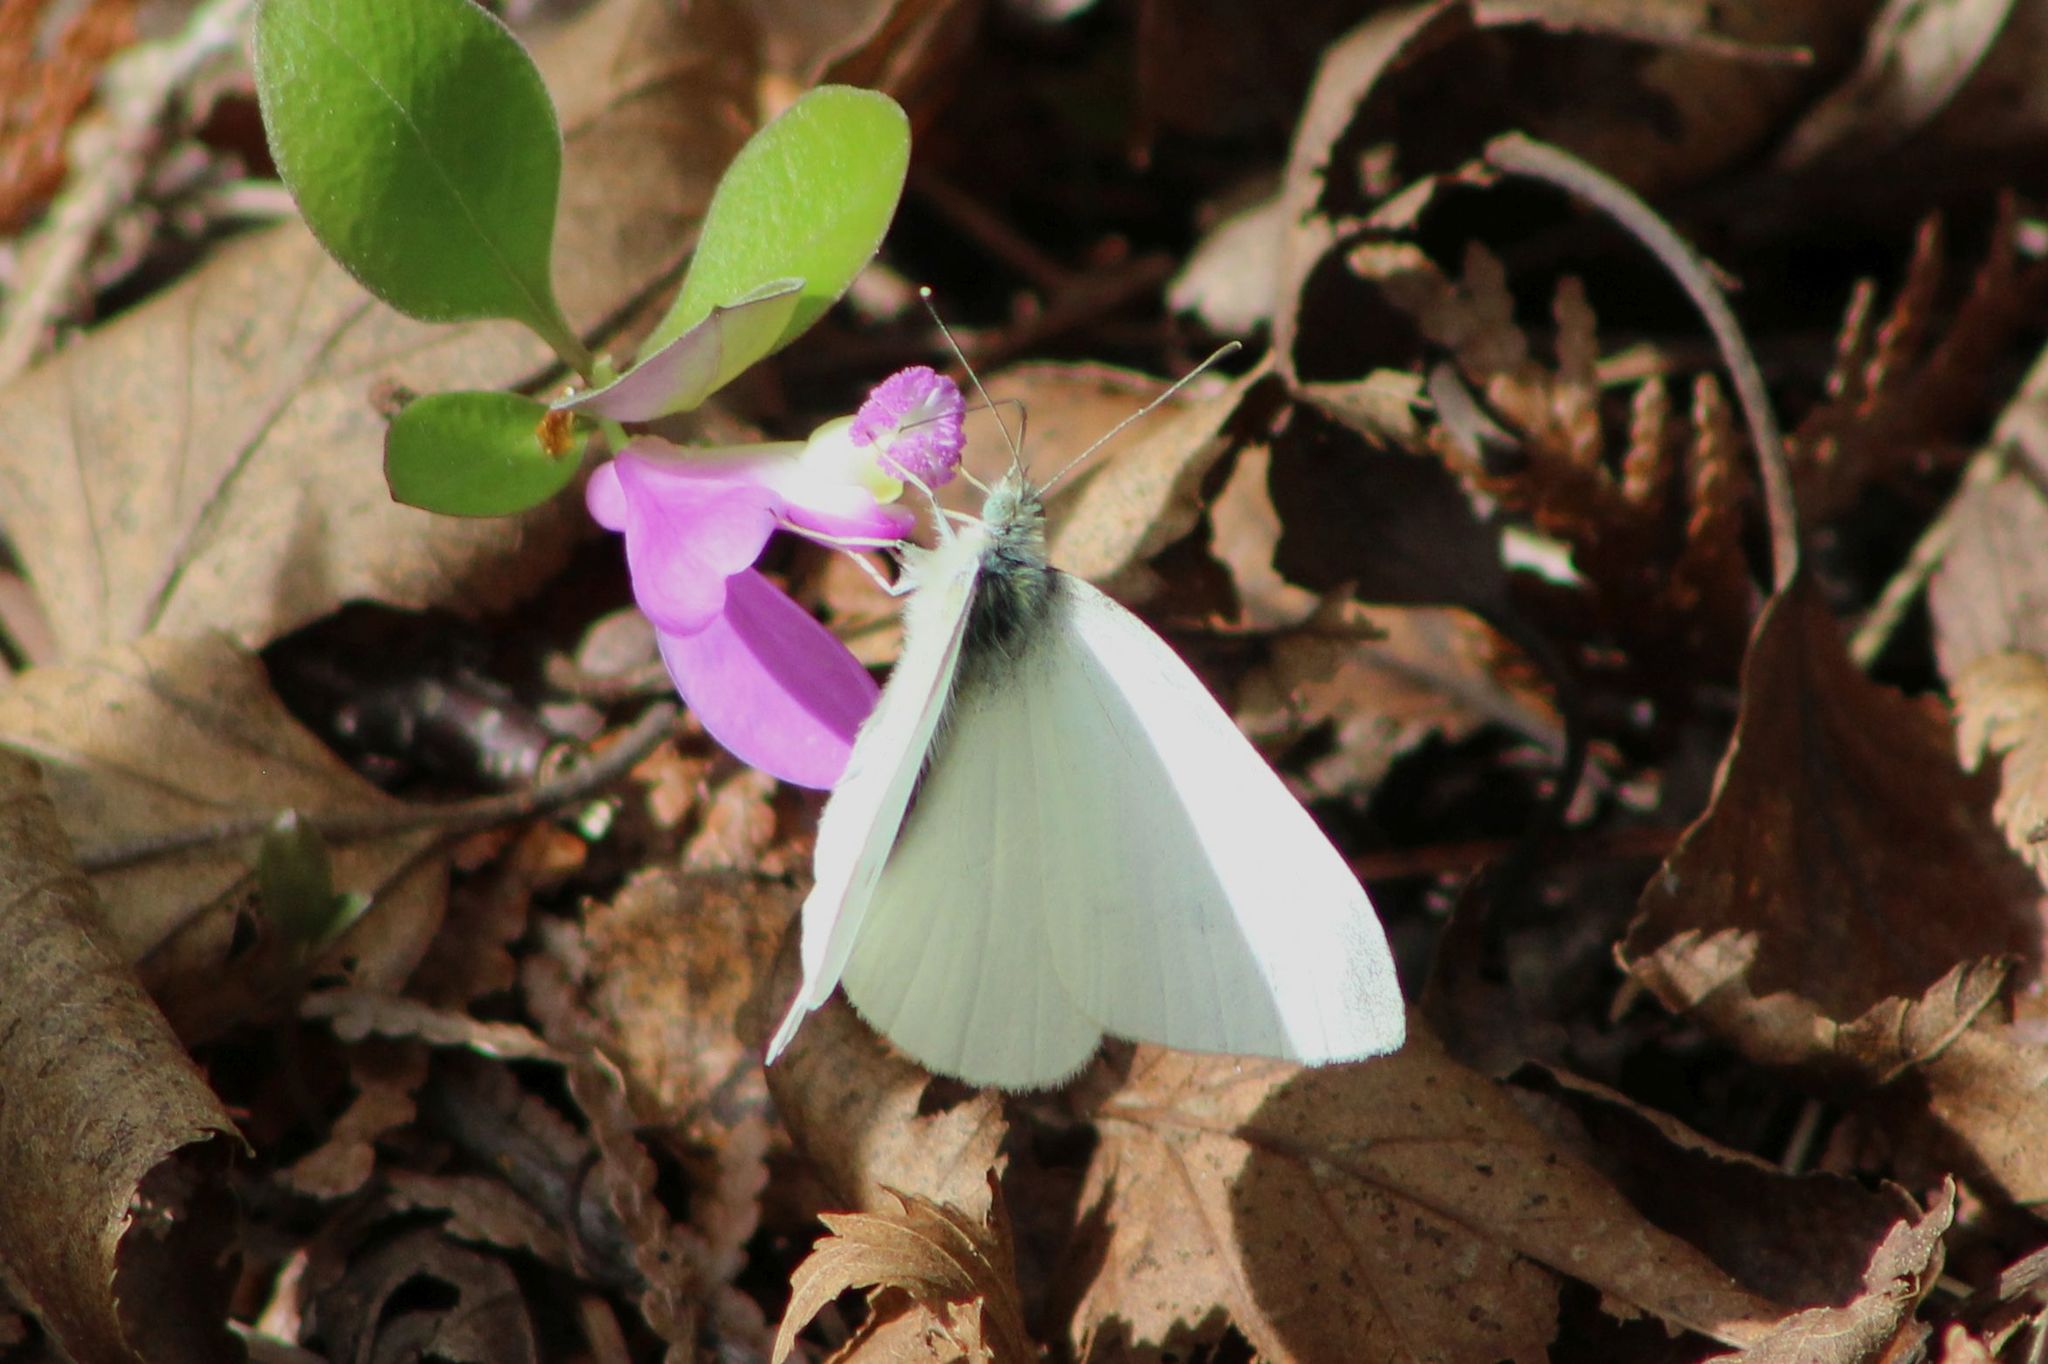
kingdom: Animalia
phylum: Arthropoda
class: Insecta
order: Lepidoptera
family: Pieridae
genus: Pieris
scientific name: Pieris rapae
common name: Small white
